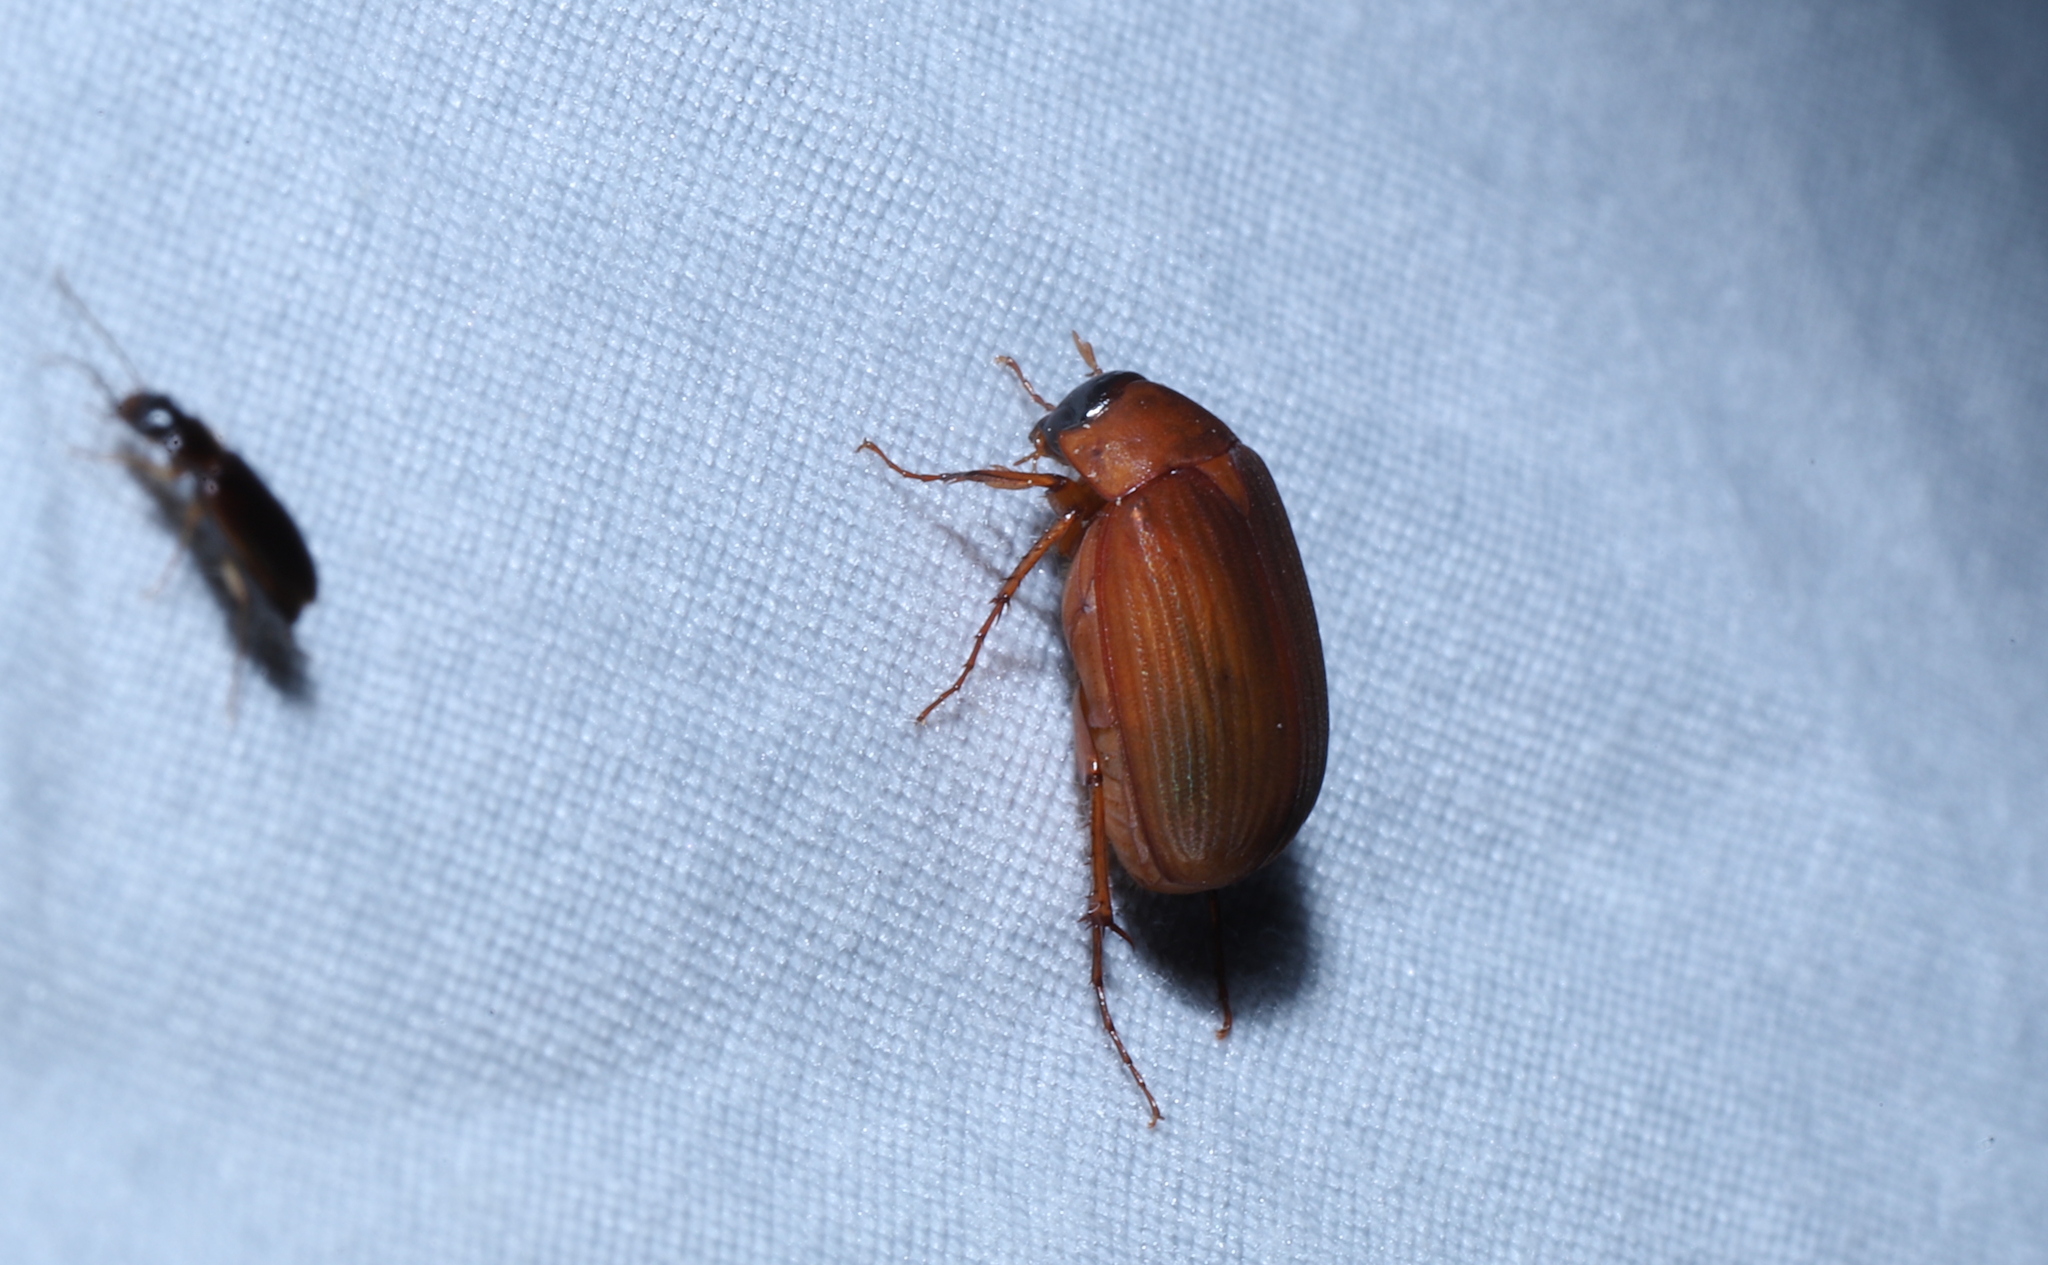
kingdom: Animalia
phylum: Arthropoda
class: Insecta
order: Coleoptera
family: Scarabaeidae
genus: Maladera
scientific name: Maladera formosae
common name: Asiatic garden beetle
